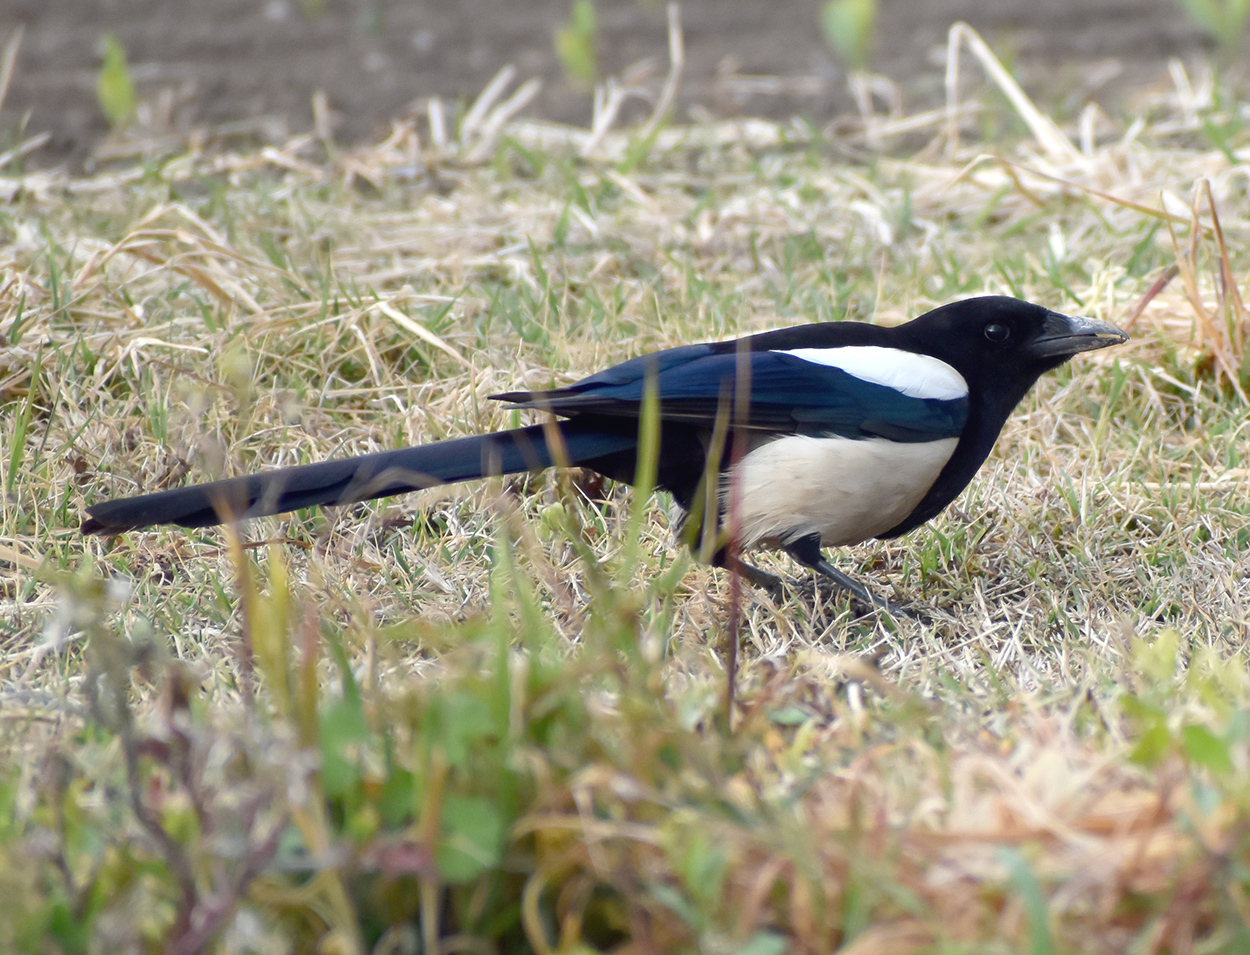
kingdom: Animalia
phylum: Chordata
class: Aves
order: Passeriformes
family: Corvidae
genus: Pica
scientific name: Pica pica
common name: Eurasian magpie
